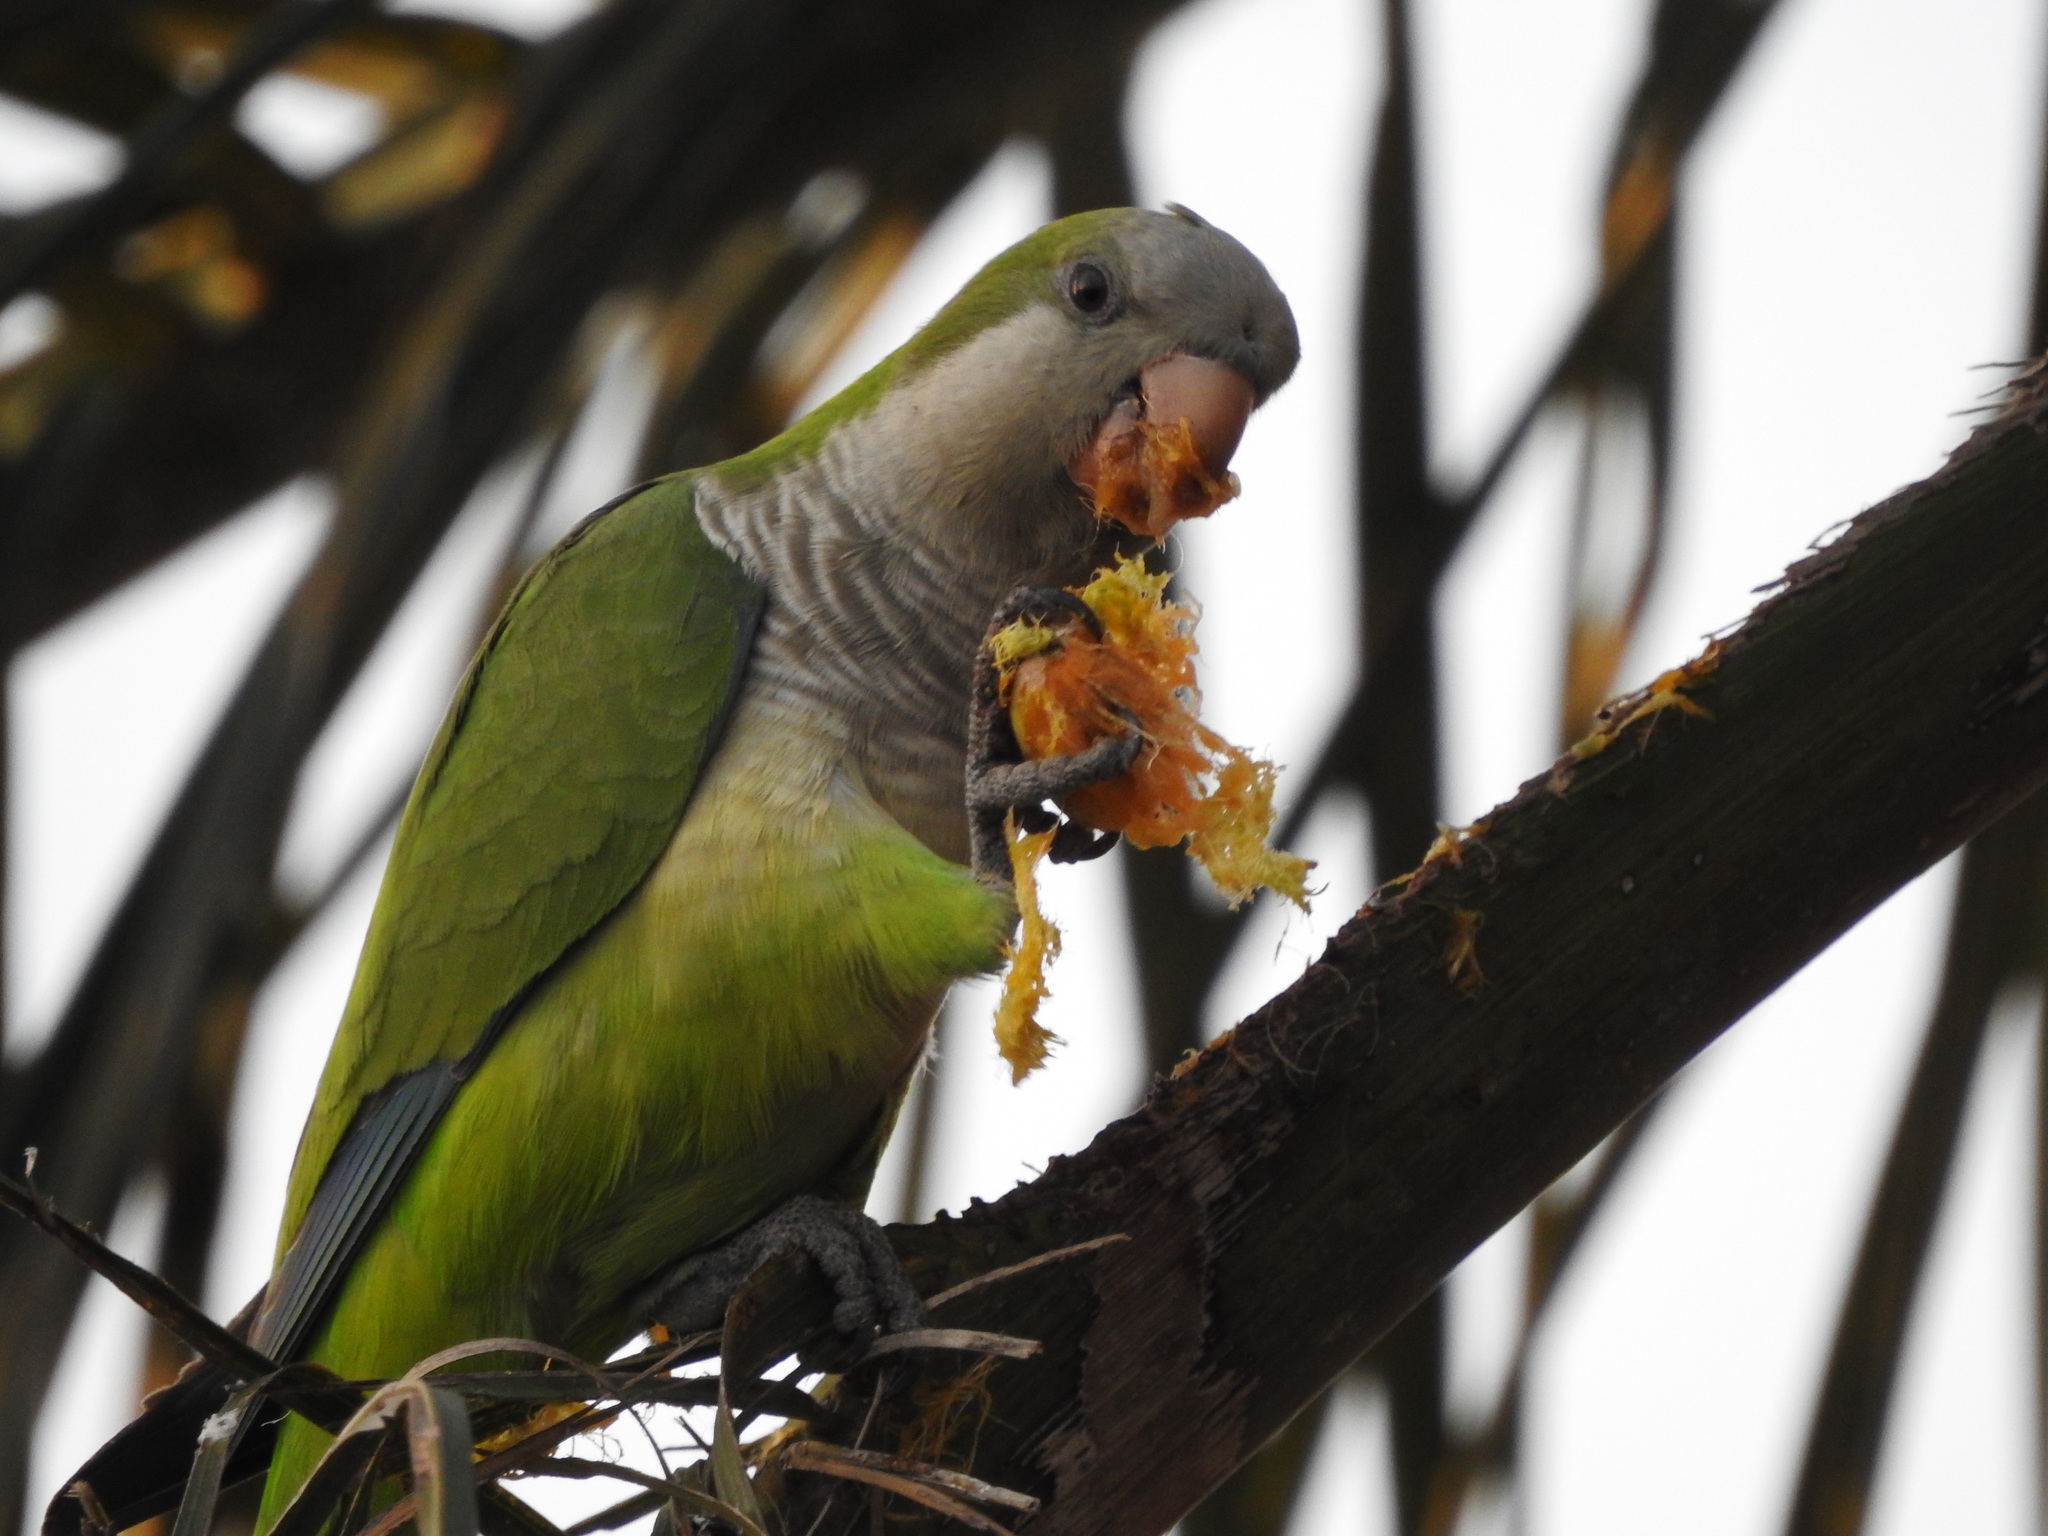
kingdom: Animalia
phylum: Chordata
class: Aves
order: Psittaciformes
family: Psittacidae
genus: Myiopsitta
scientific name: Myiopsitta monachus
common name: Monk parakeet
